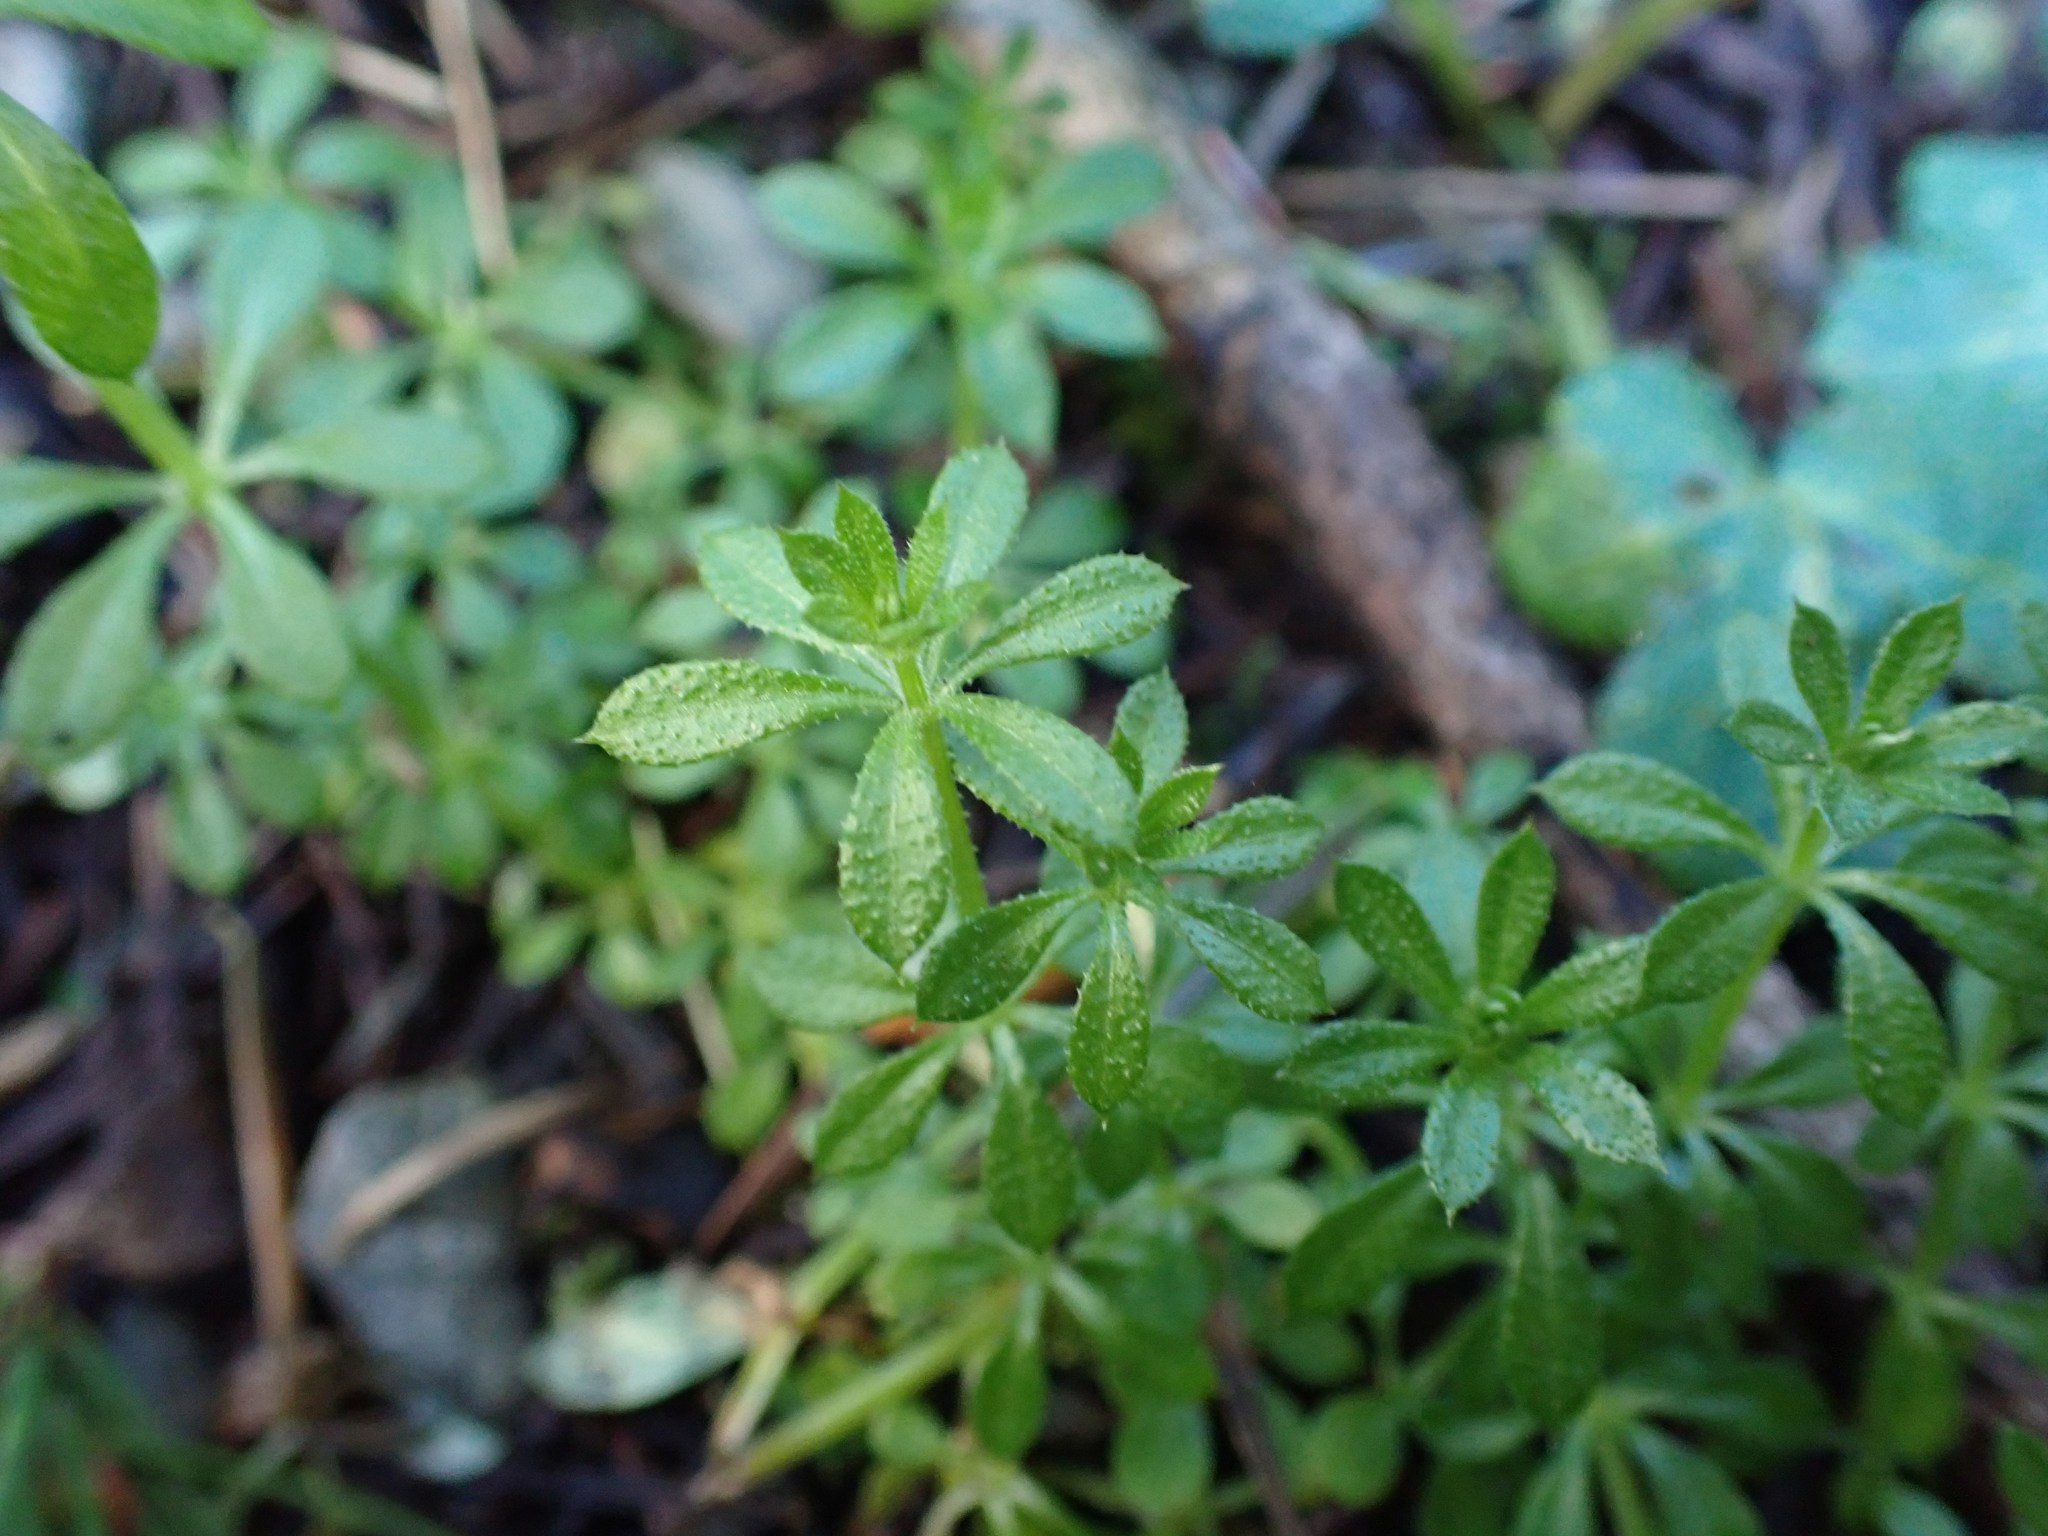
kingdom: Plantae
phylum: Tracheophyta
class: Magnoliopsida
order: Gentianales
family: Rubiaceae
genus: Galium
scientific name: Galium aparine
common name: Cleavers
